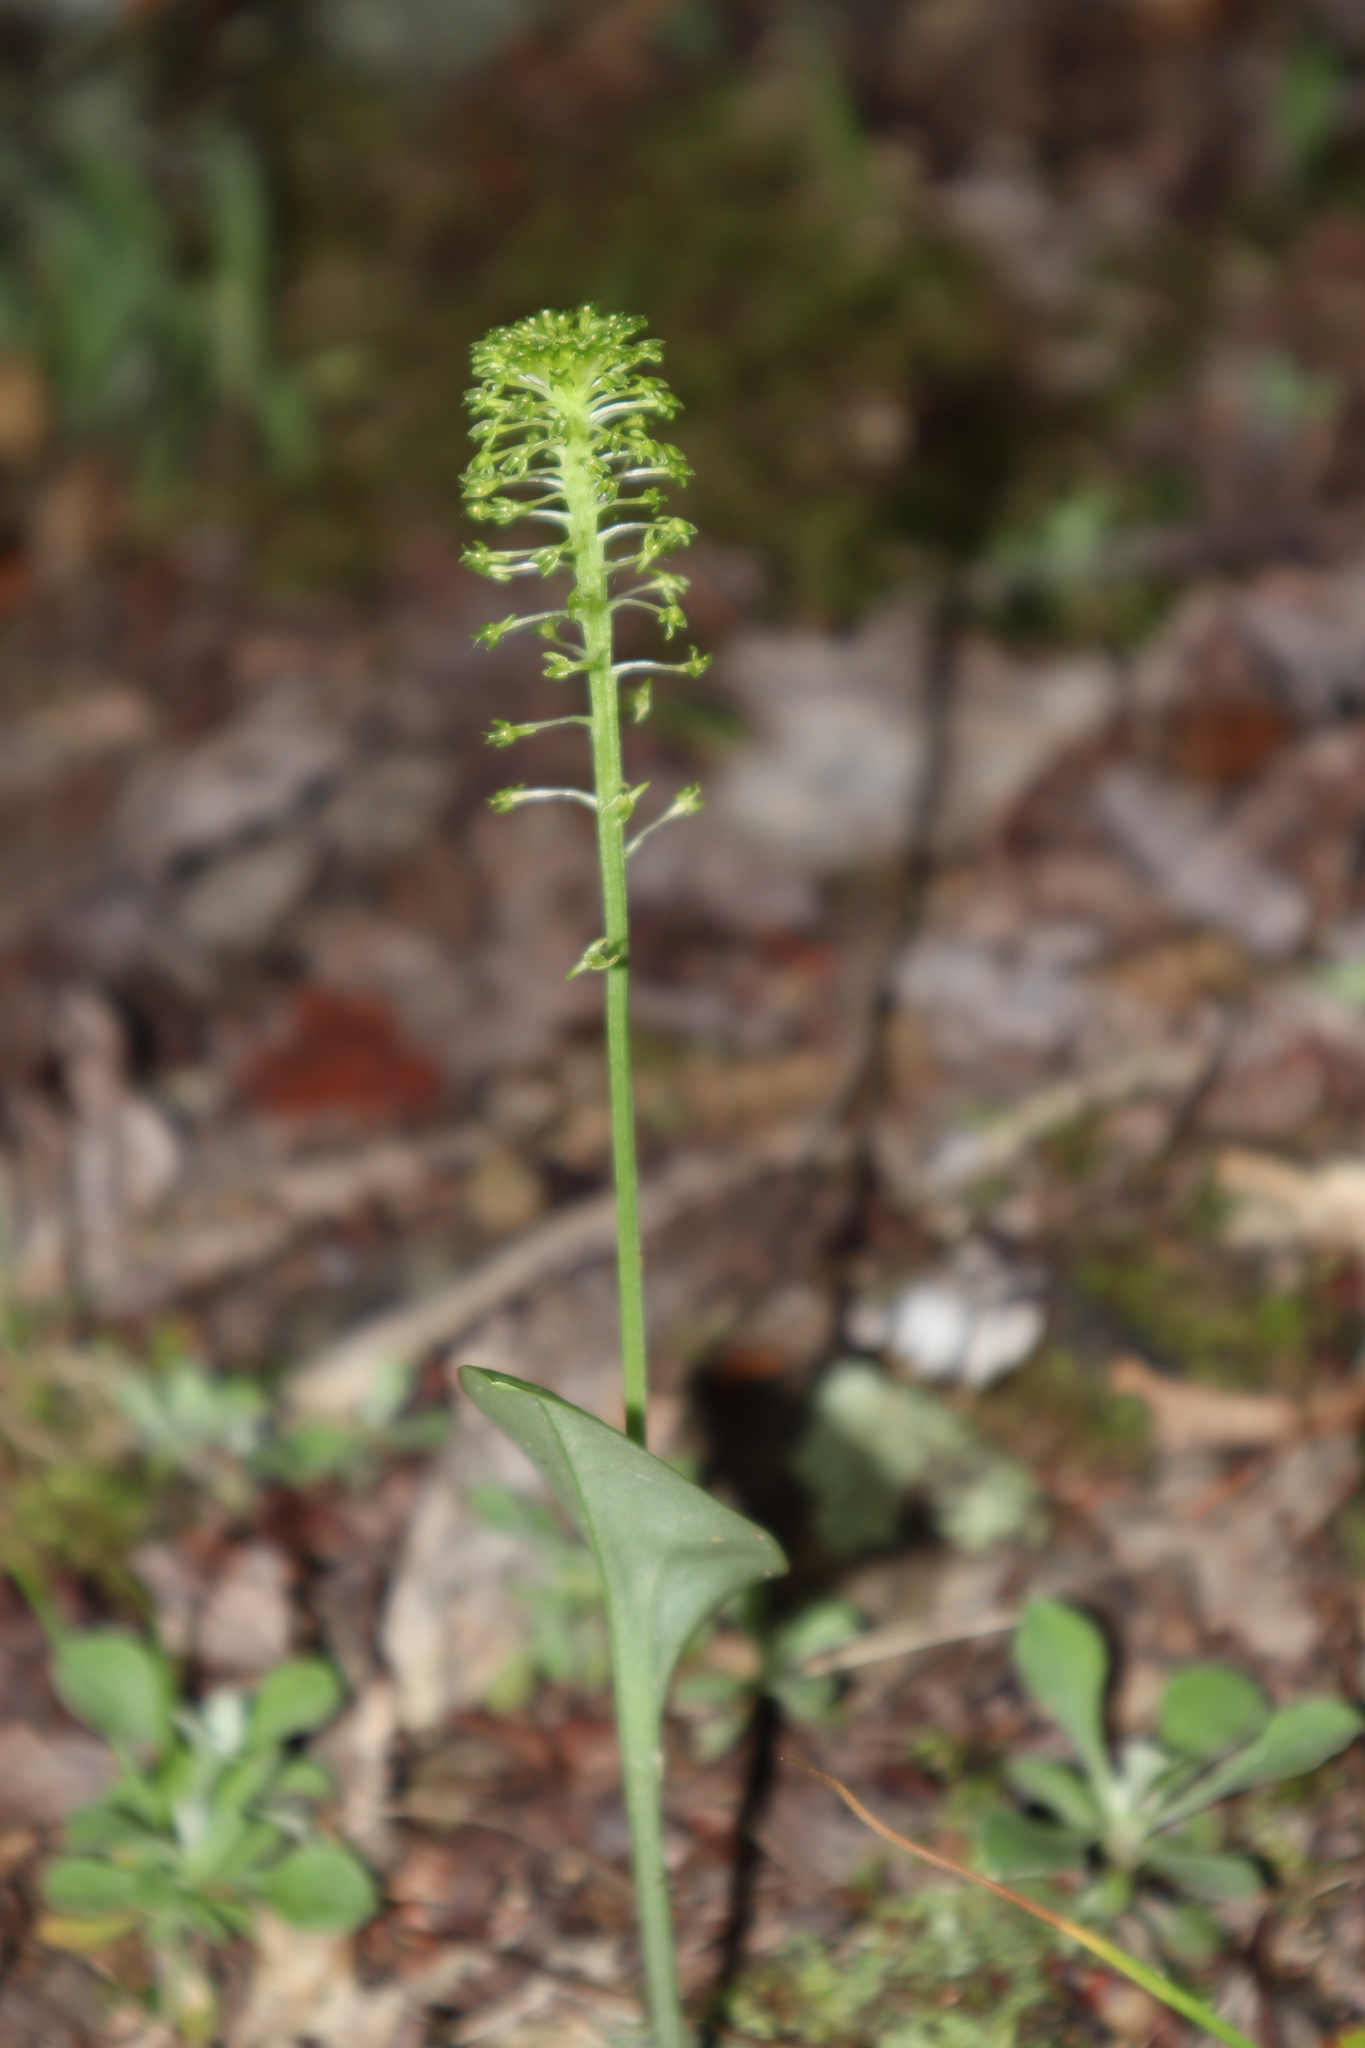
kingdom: Plantae
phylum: Tracheophyta
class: Liliopsida
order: Asparagales
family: Orchidaceae
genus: Malaxis
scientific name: Malaxis unifolia
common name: Green adder's-mouth
